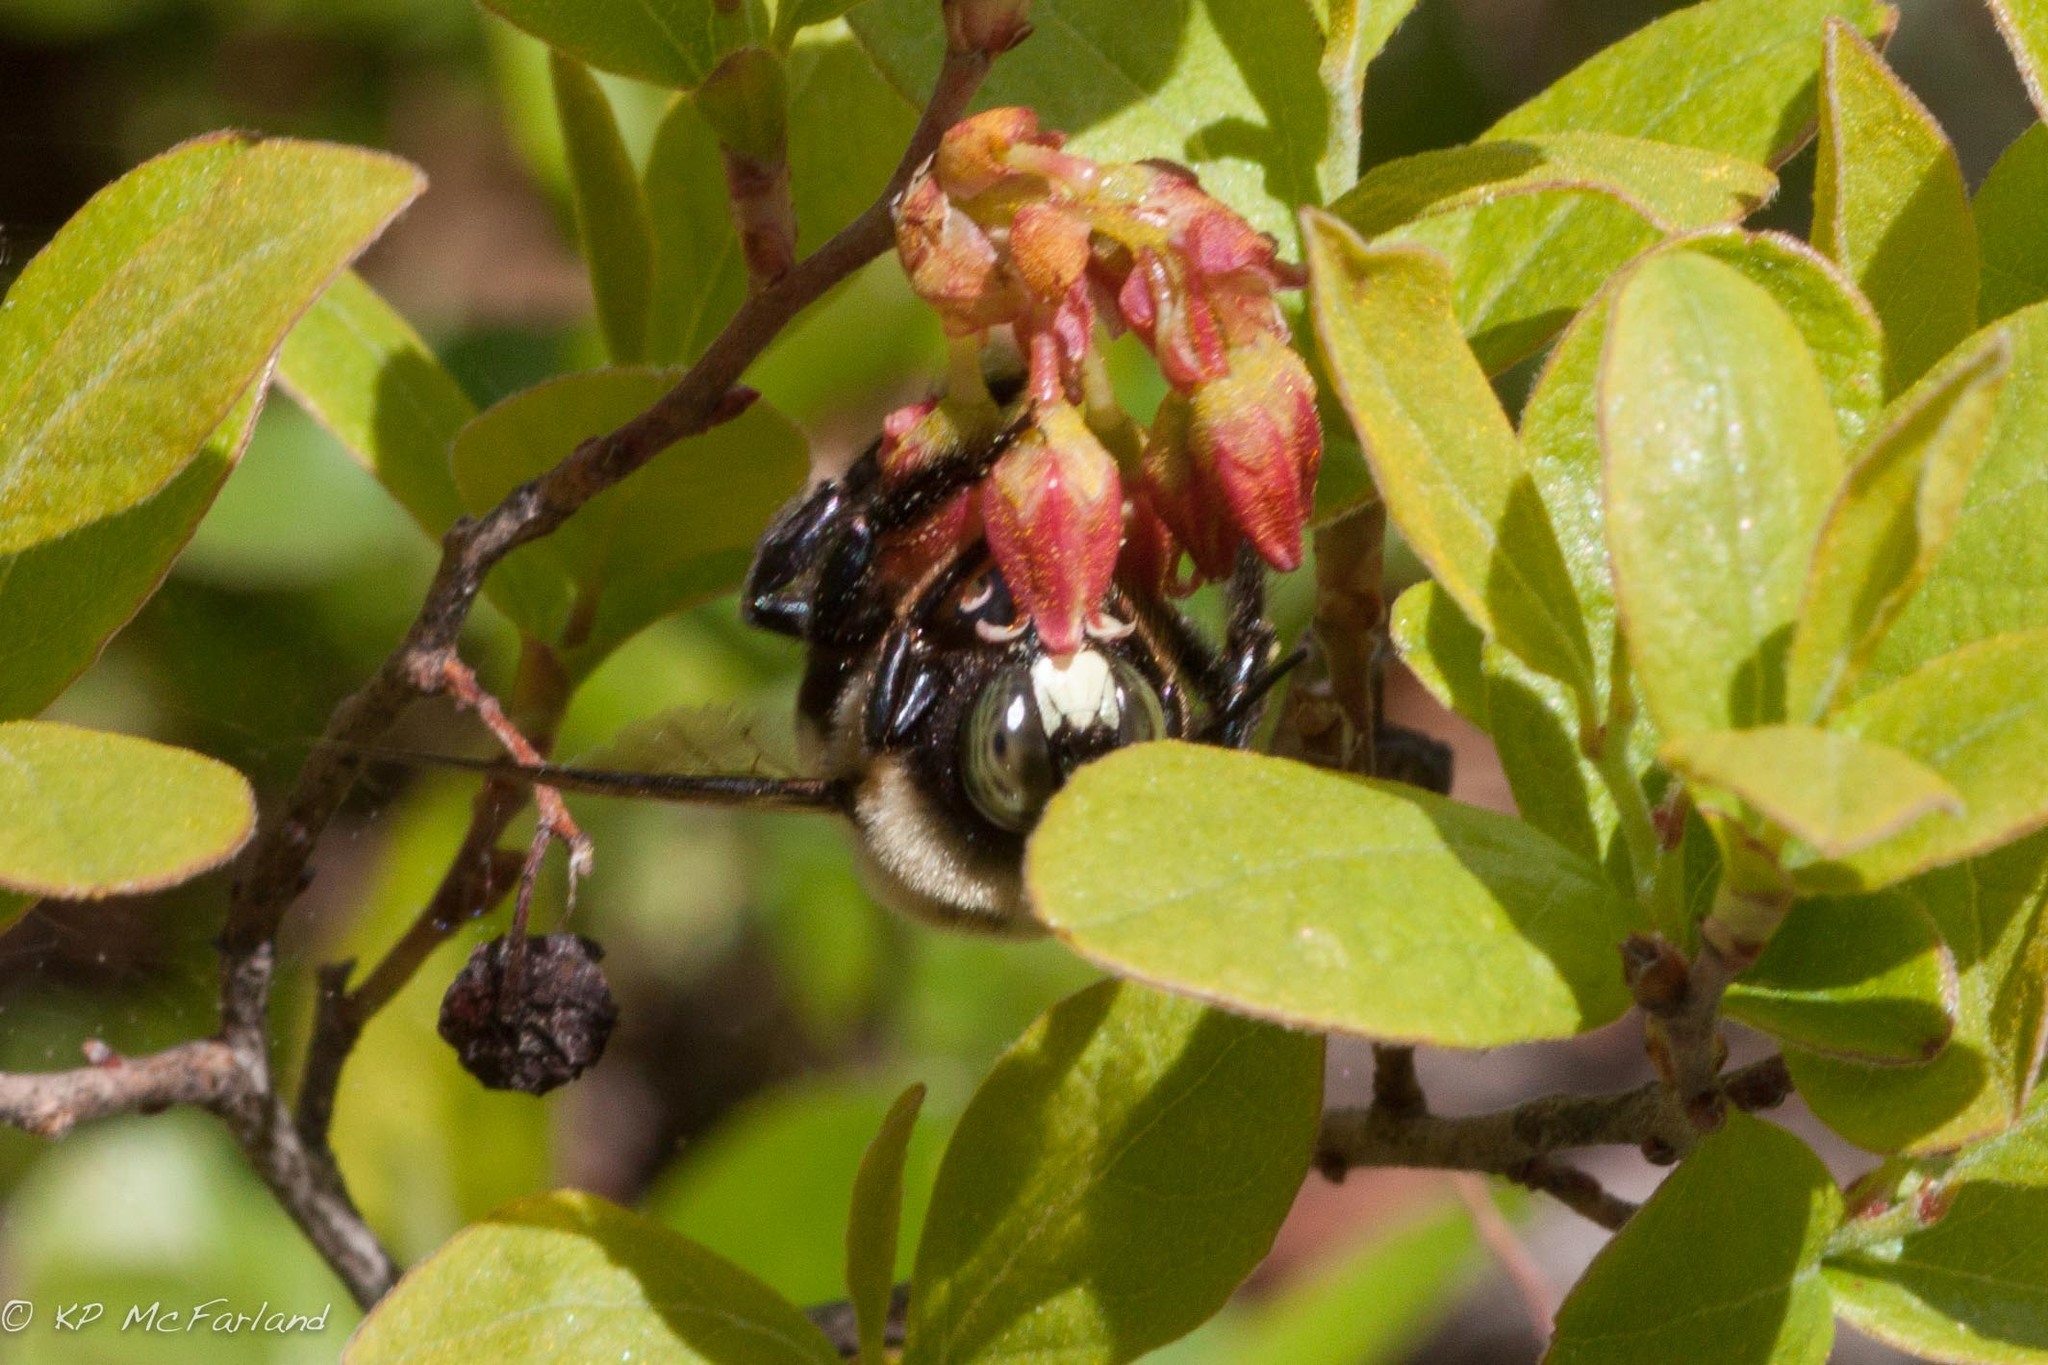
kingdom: Animalia
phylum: Arthropoda
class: Insecta
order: Hymenoptera
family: Apidae
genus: Xylocopa
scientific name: Xylocopa virginica
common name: Carpenter bee
